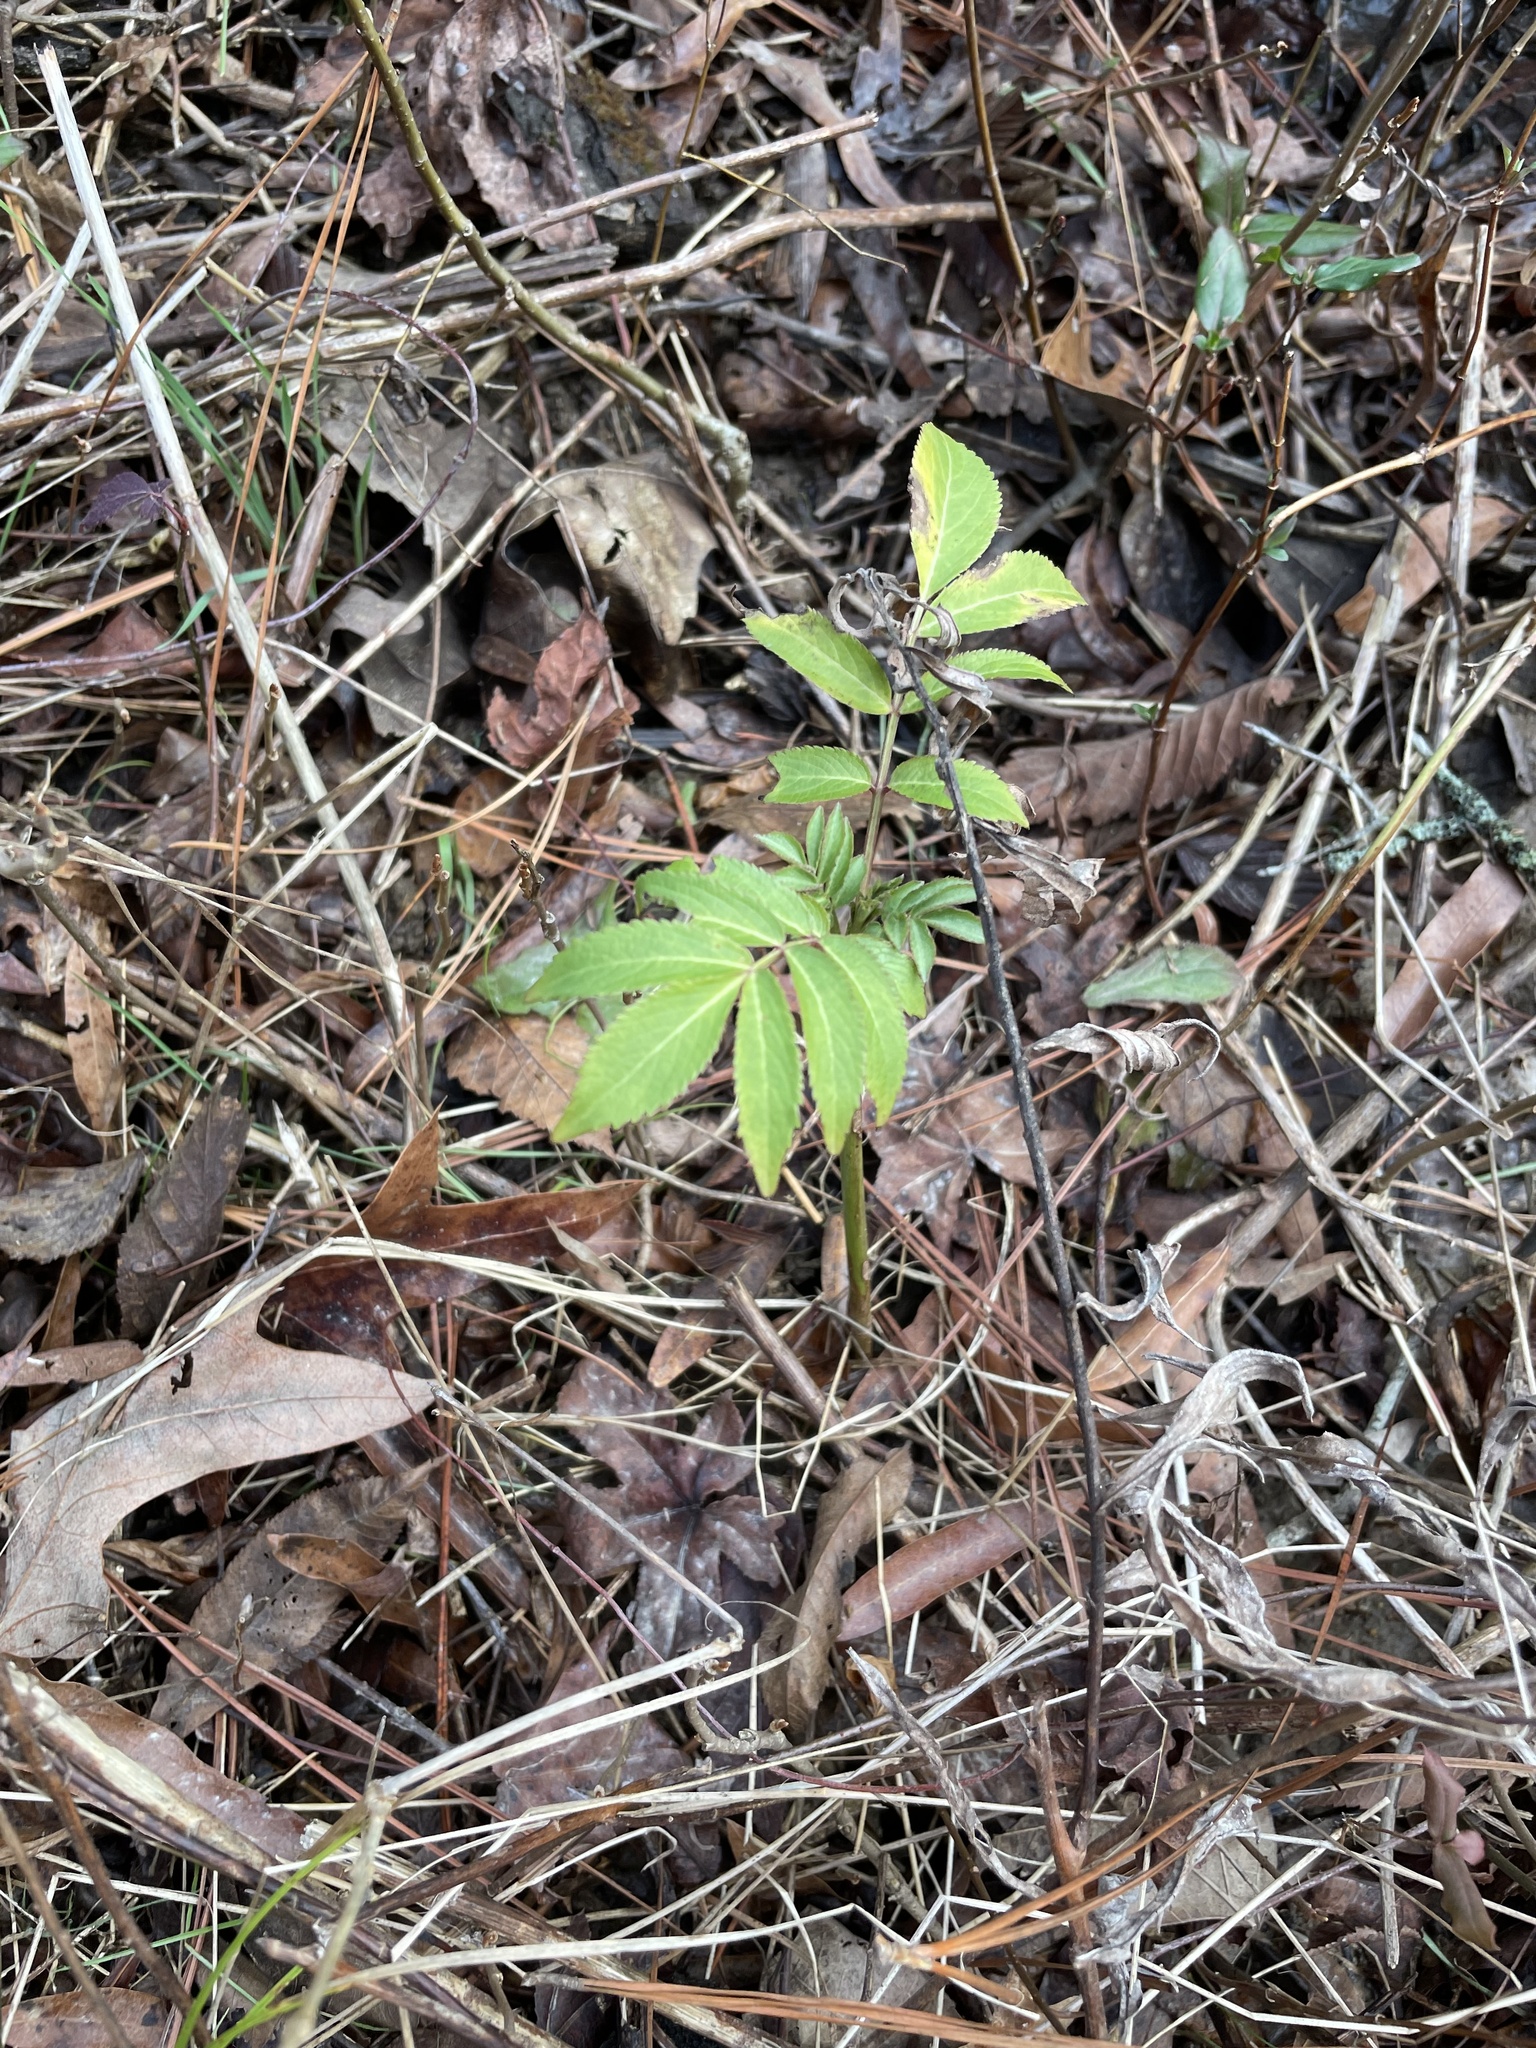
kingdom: Plantae
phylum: Tracheophyta
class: Magnoliopsida
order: Dipsacales
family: Viburnaceae
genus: Sambucus
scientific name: Sambucus canadensis
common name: American elder
